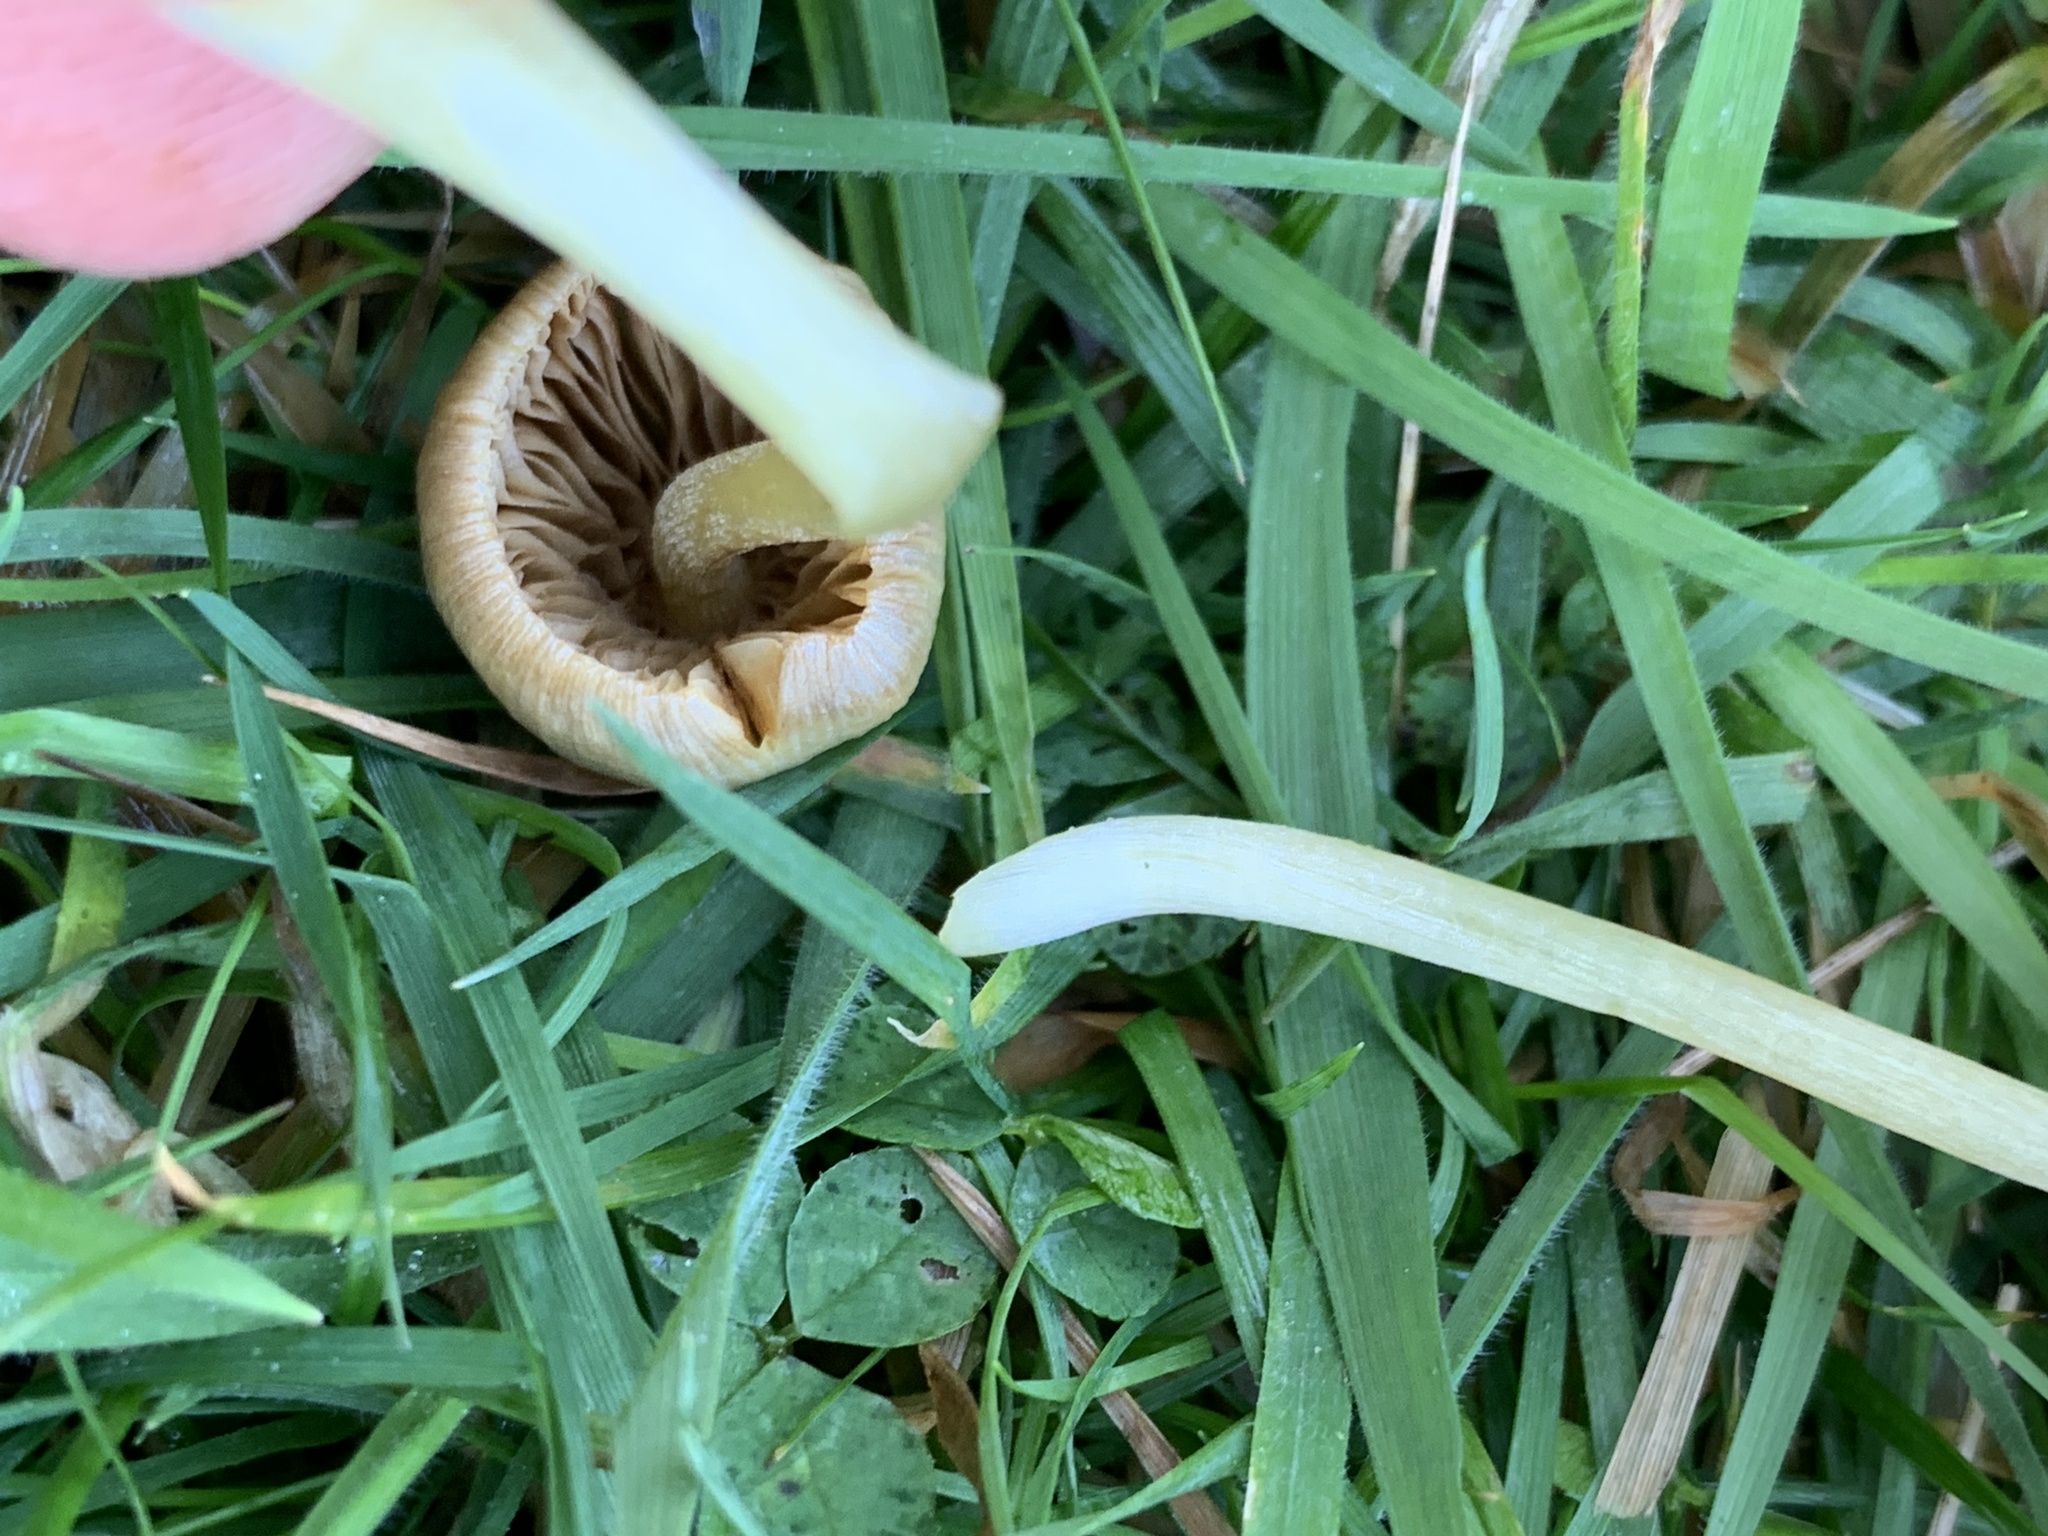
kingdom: Fungi
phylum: Basidiomycota
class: Agaricomycetes
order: Agaricales
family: Bolbitiaceae
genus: Bolbitius
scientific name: Bolbitius titubans
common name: Yellow fieldcap
